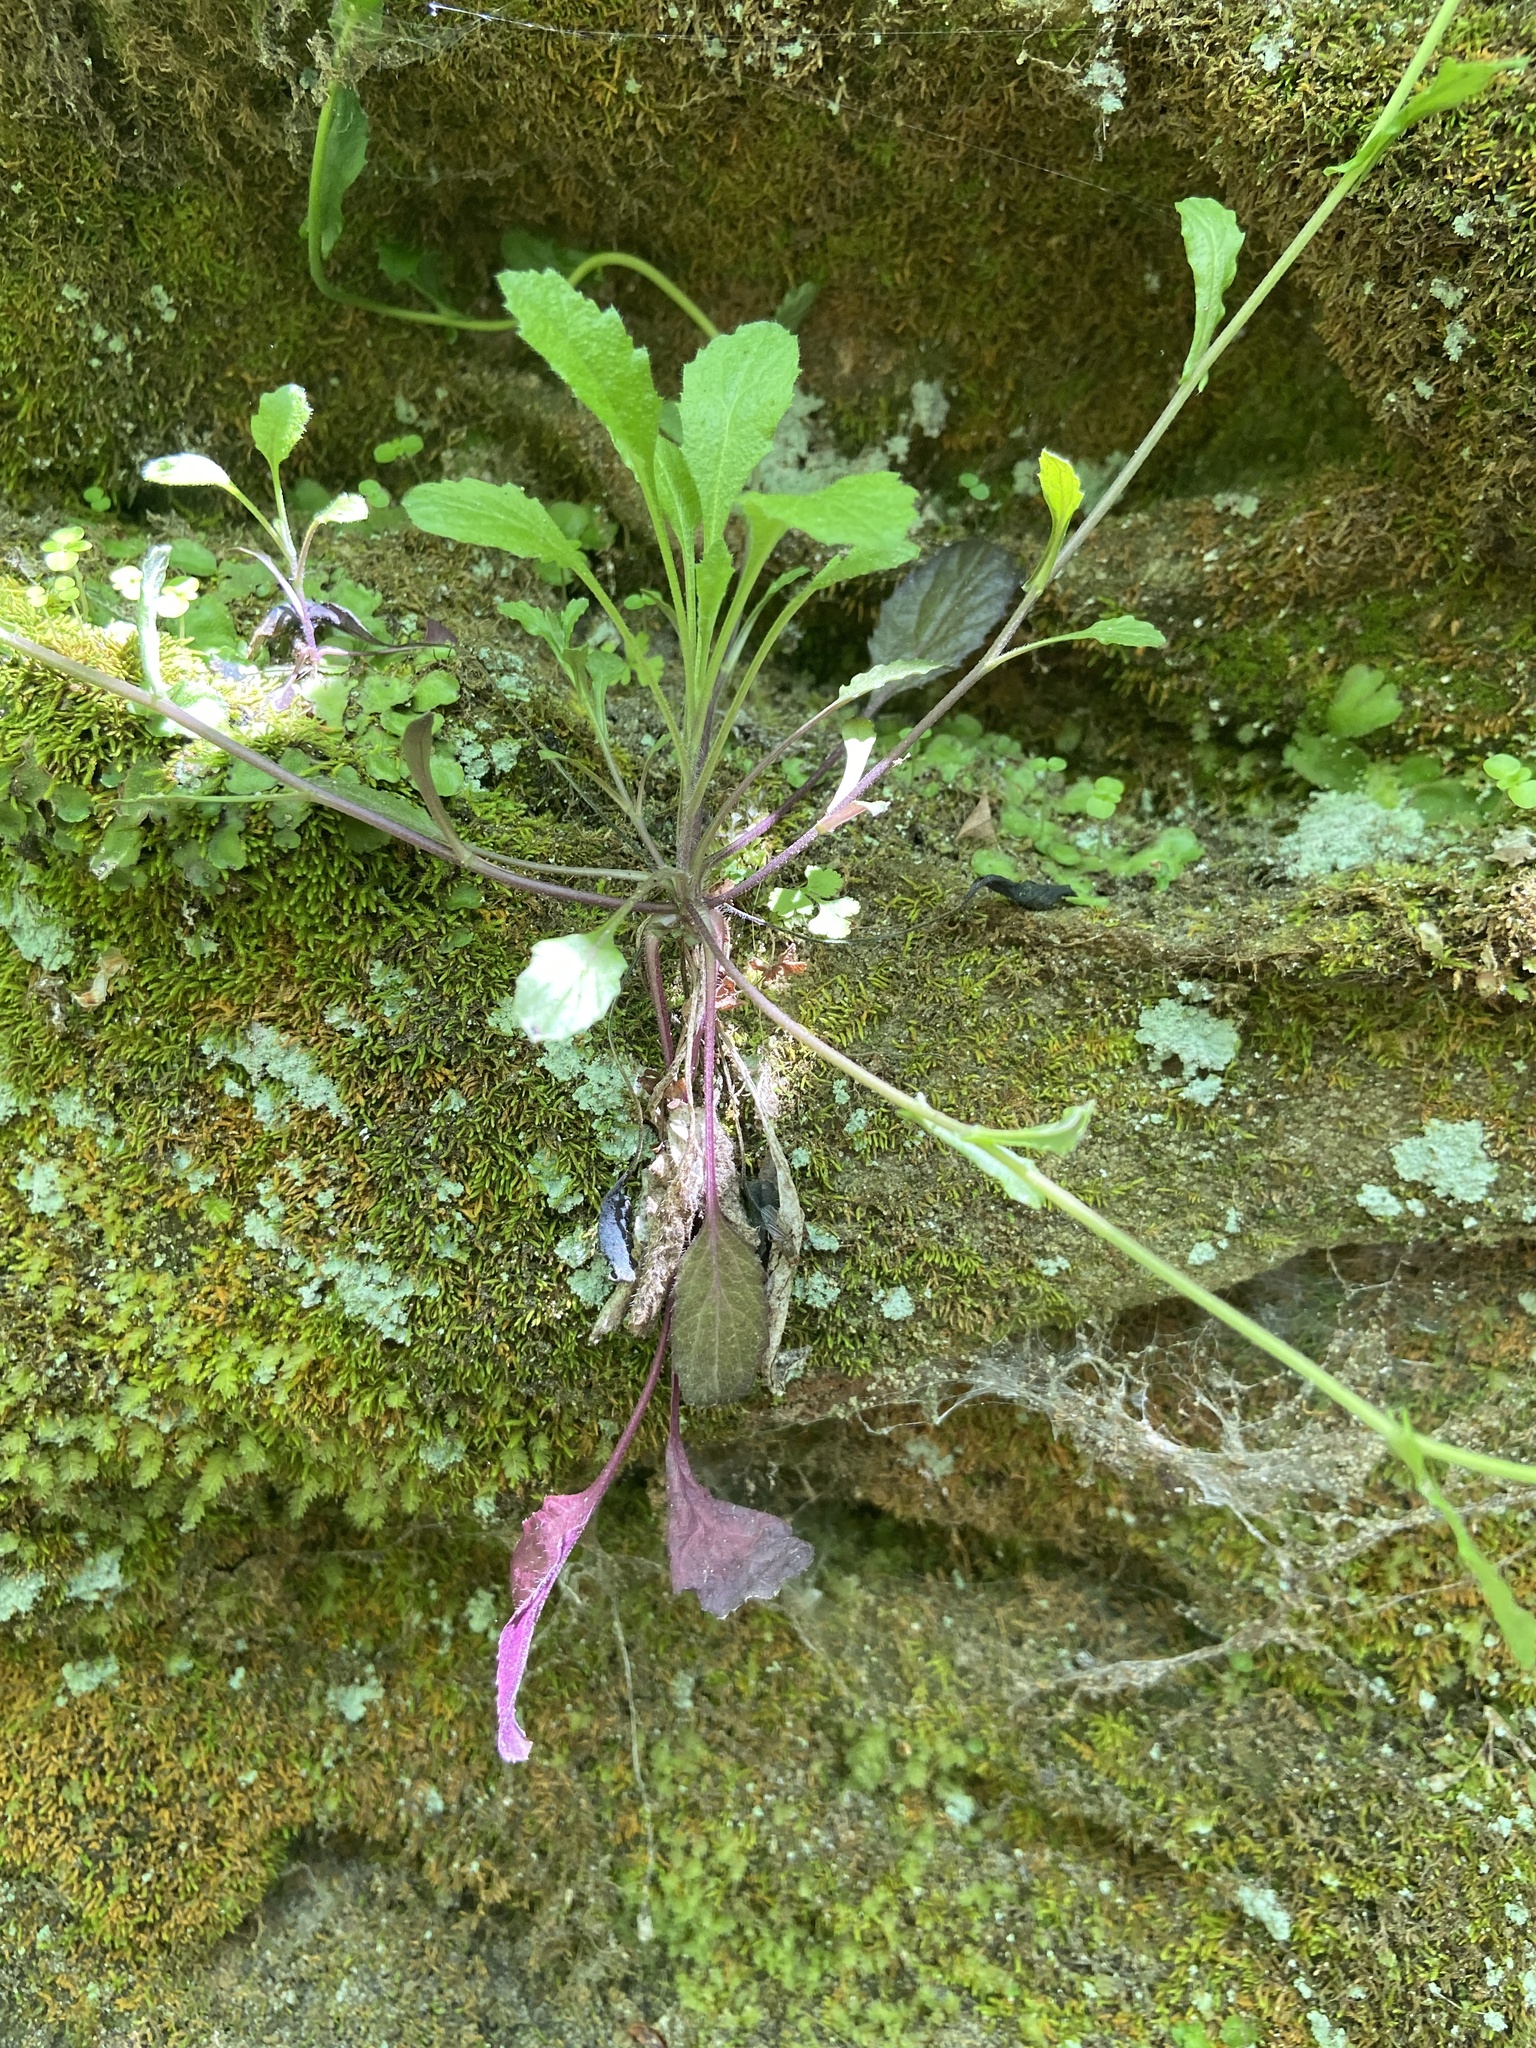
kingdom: Plantae
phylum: Tracheophyta
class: Magnoliopsida
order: Brassicales
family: Brassicaceae
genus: Borodinia
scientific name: Borodinia dentata
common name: Short's rockcress
